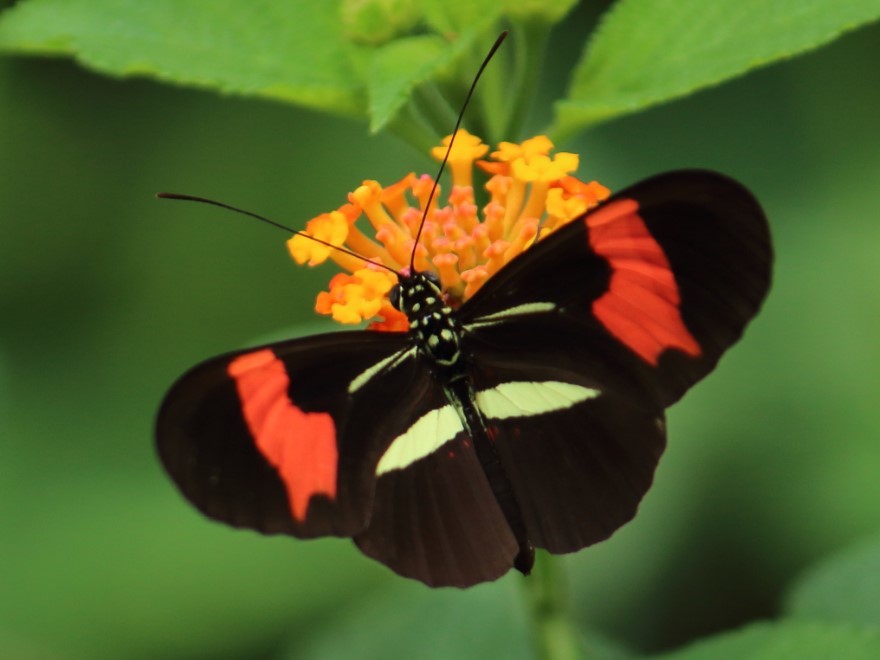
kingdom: Animalia
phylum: Arthropoda
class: Insecta
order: Lepidoptera
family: Nymphalidae
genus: Heliconius
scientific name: Heliconius erato
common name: Common patch longwing
